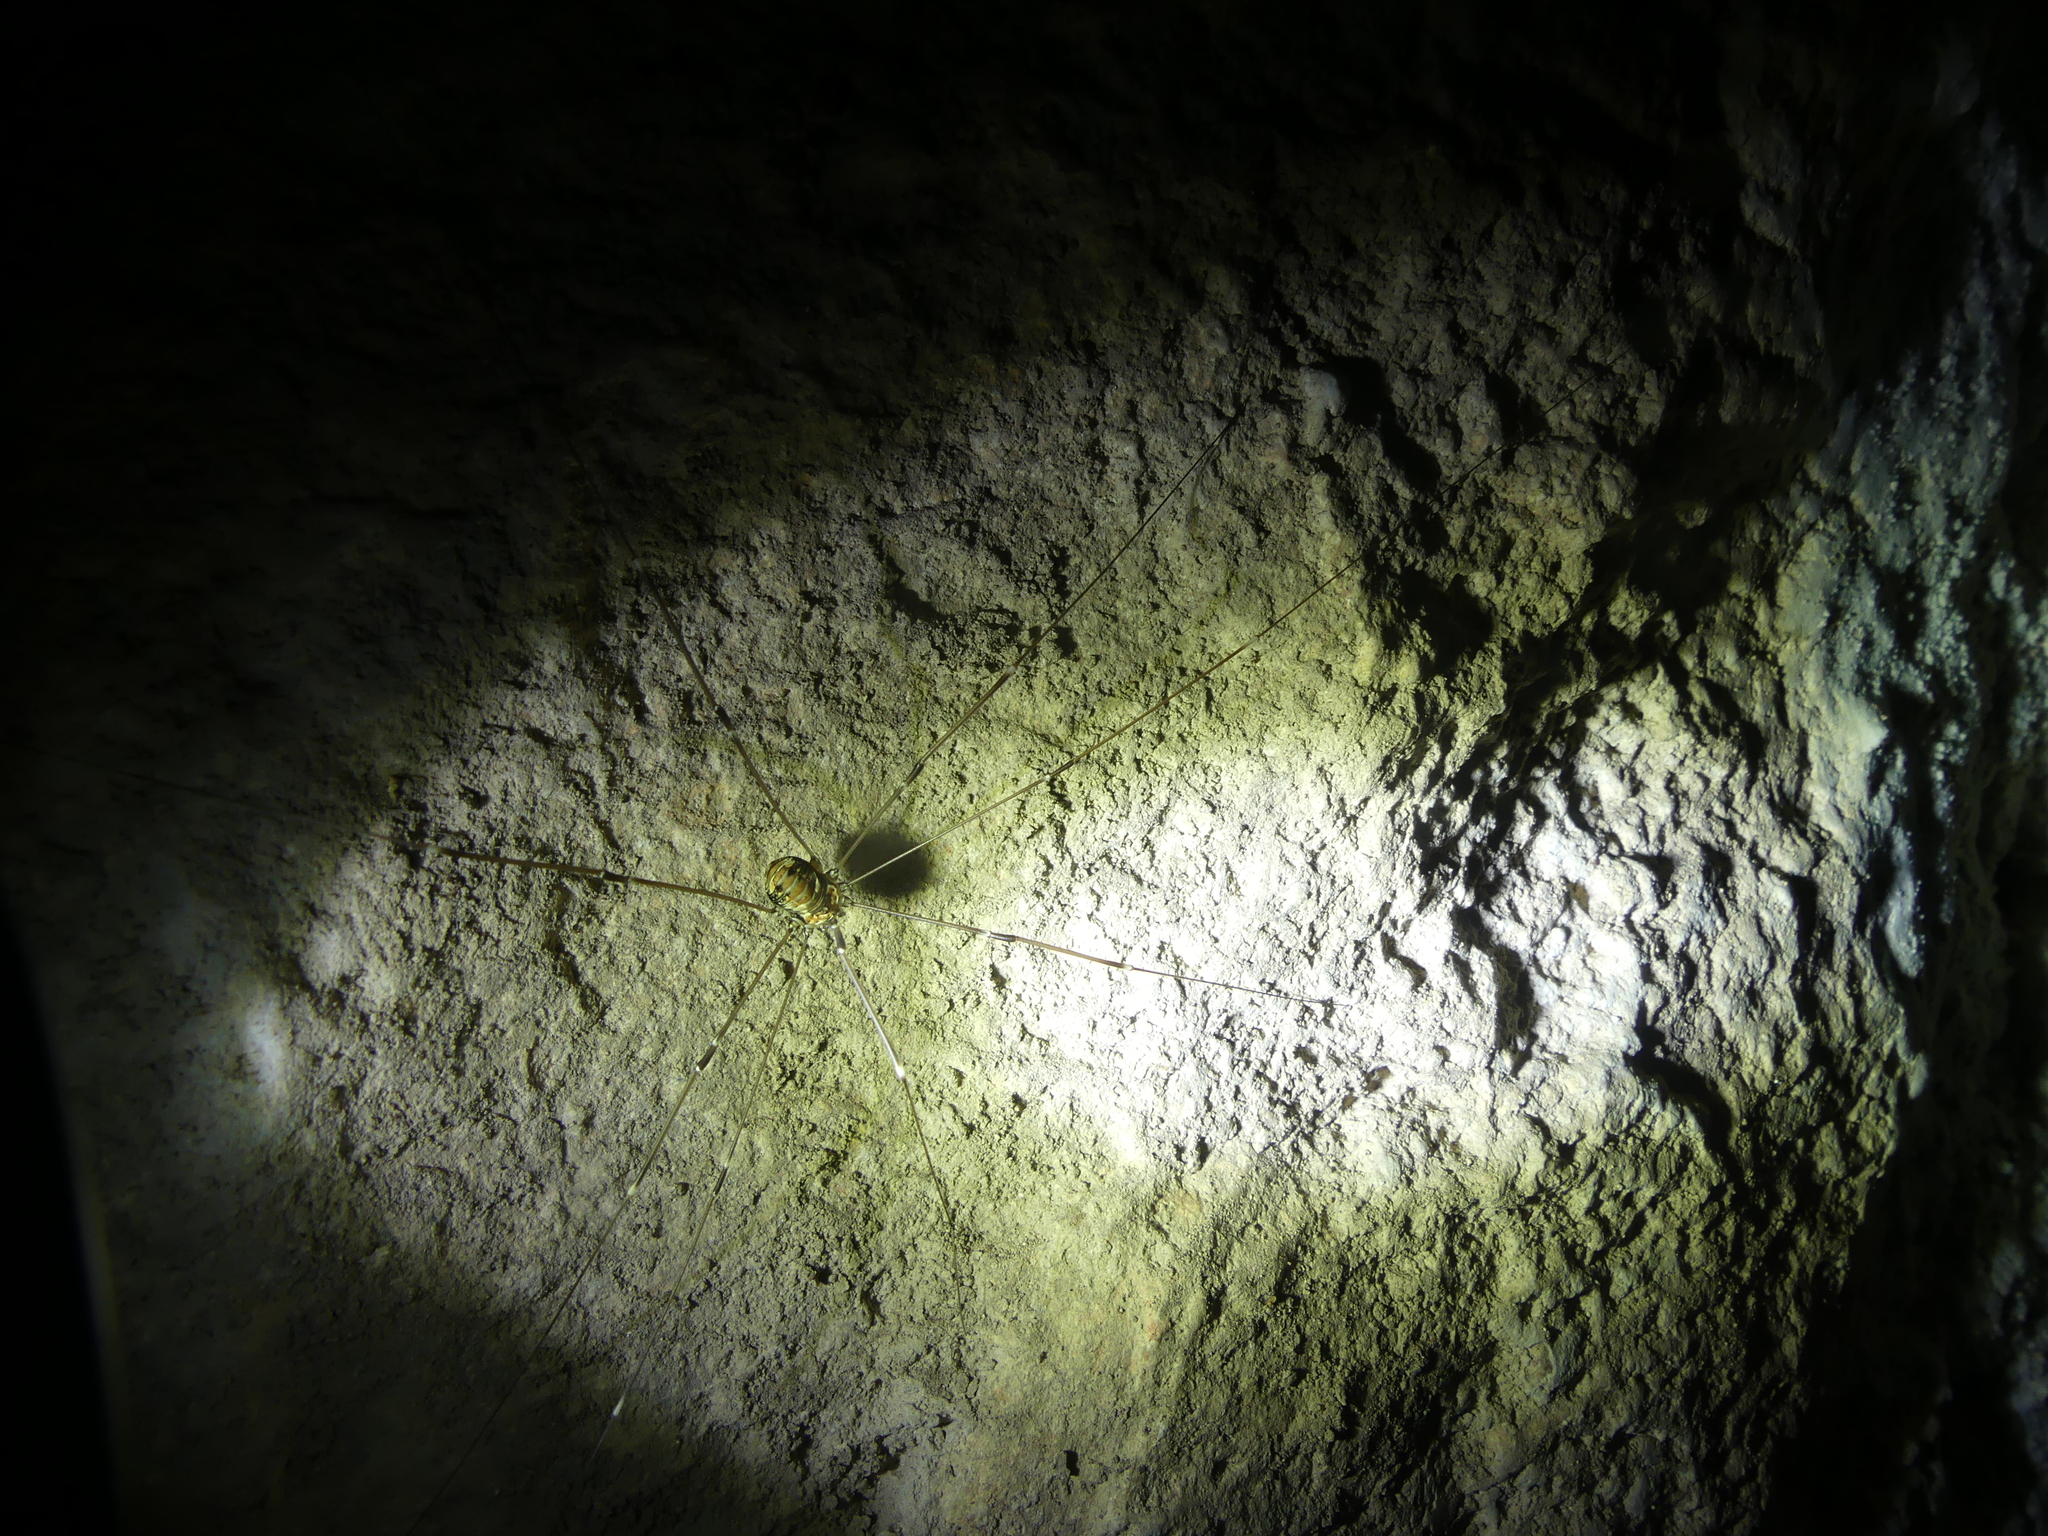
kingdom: Animalia
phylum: Arthropoda
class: Arachnida
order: Opiliones
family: Sclerosomatidae
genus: Leiobunum
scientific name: Leiobunum limbatum
